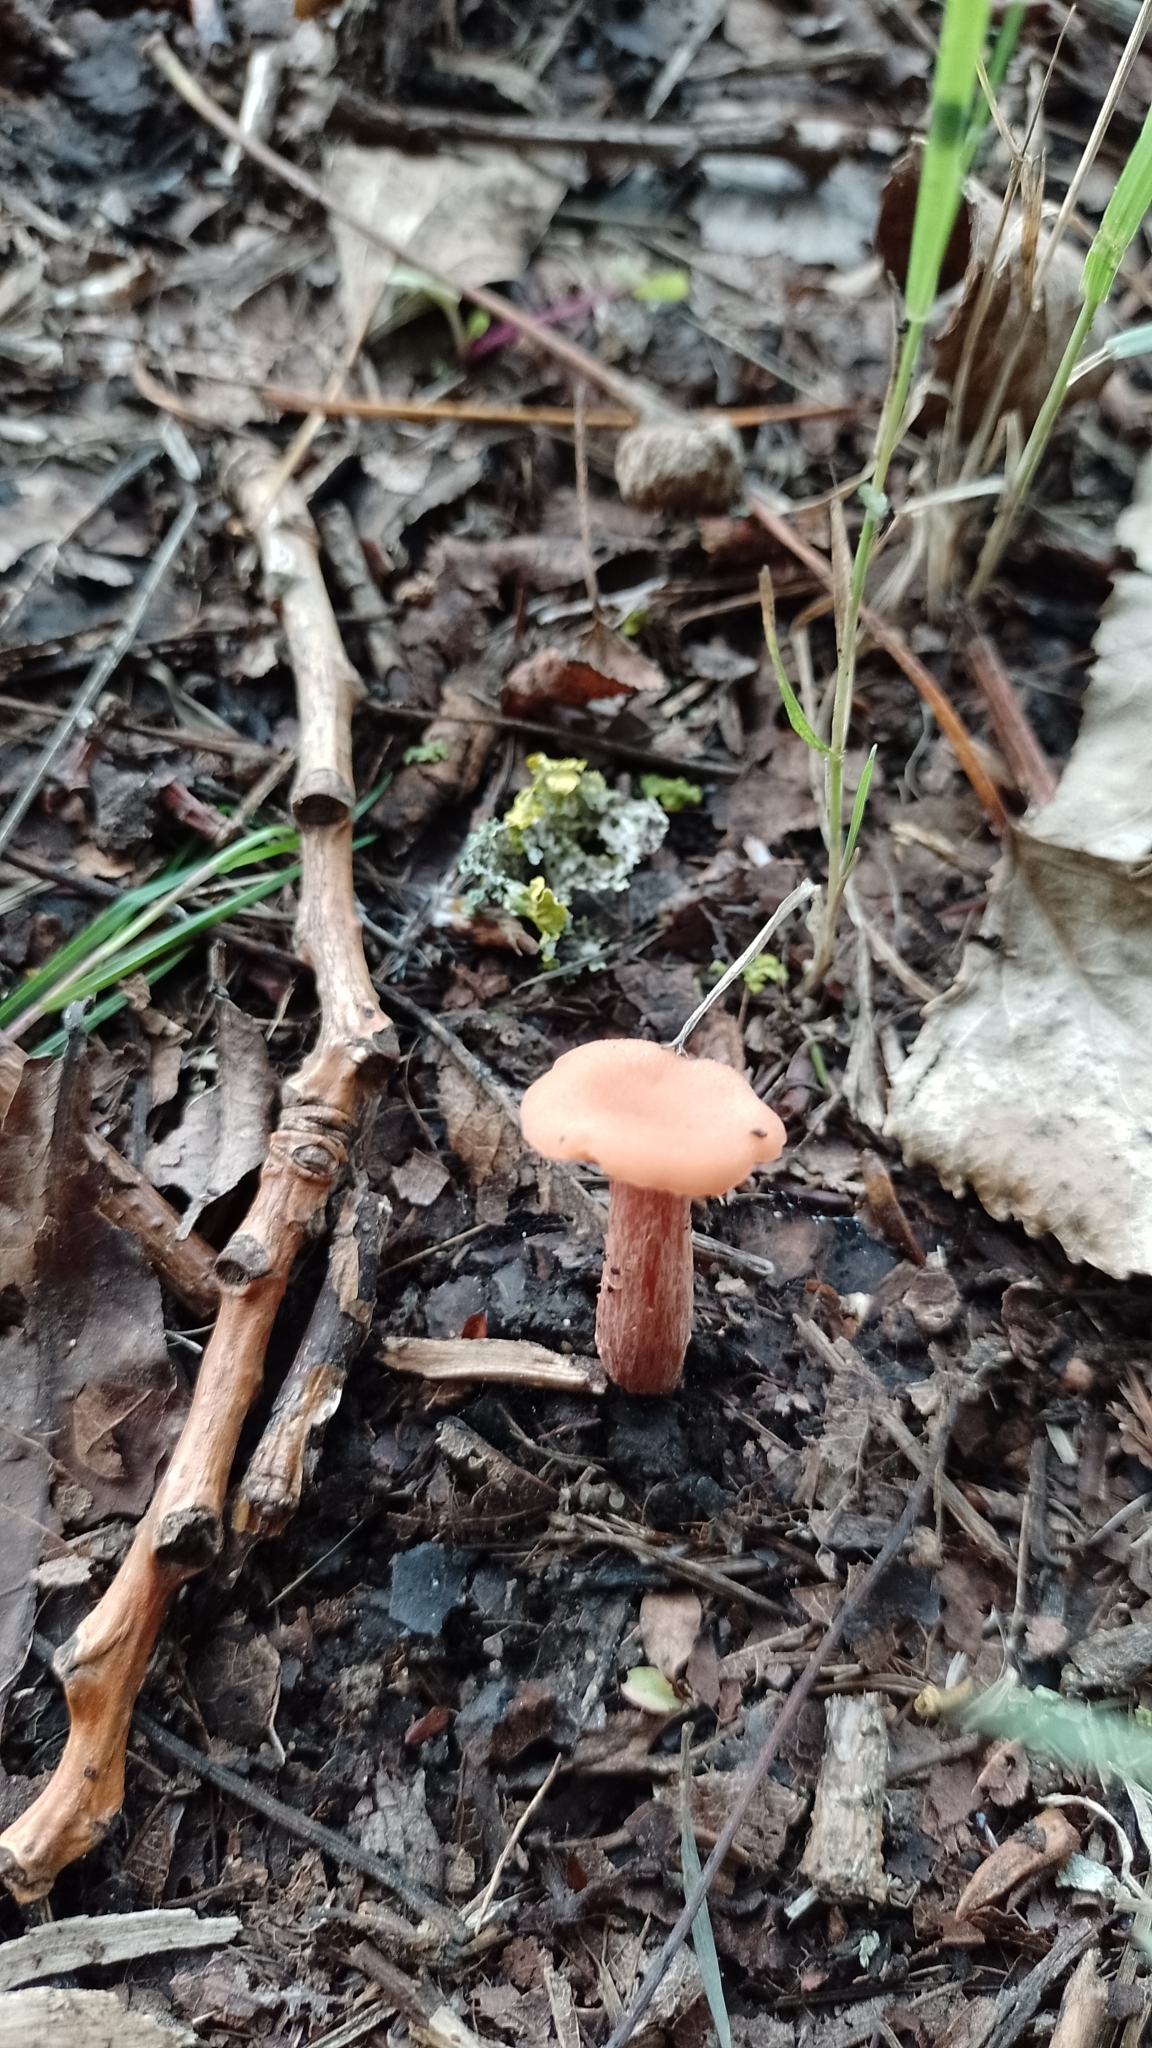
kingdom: Fungi
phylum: Basidiomycota
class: Agaricomycetes
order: Agaricales
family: Hydnangiaceae
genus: Laccaria
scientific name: Laccaria laccata
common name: Deceiver
